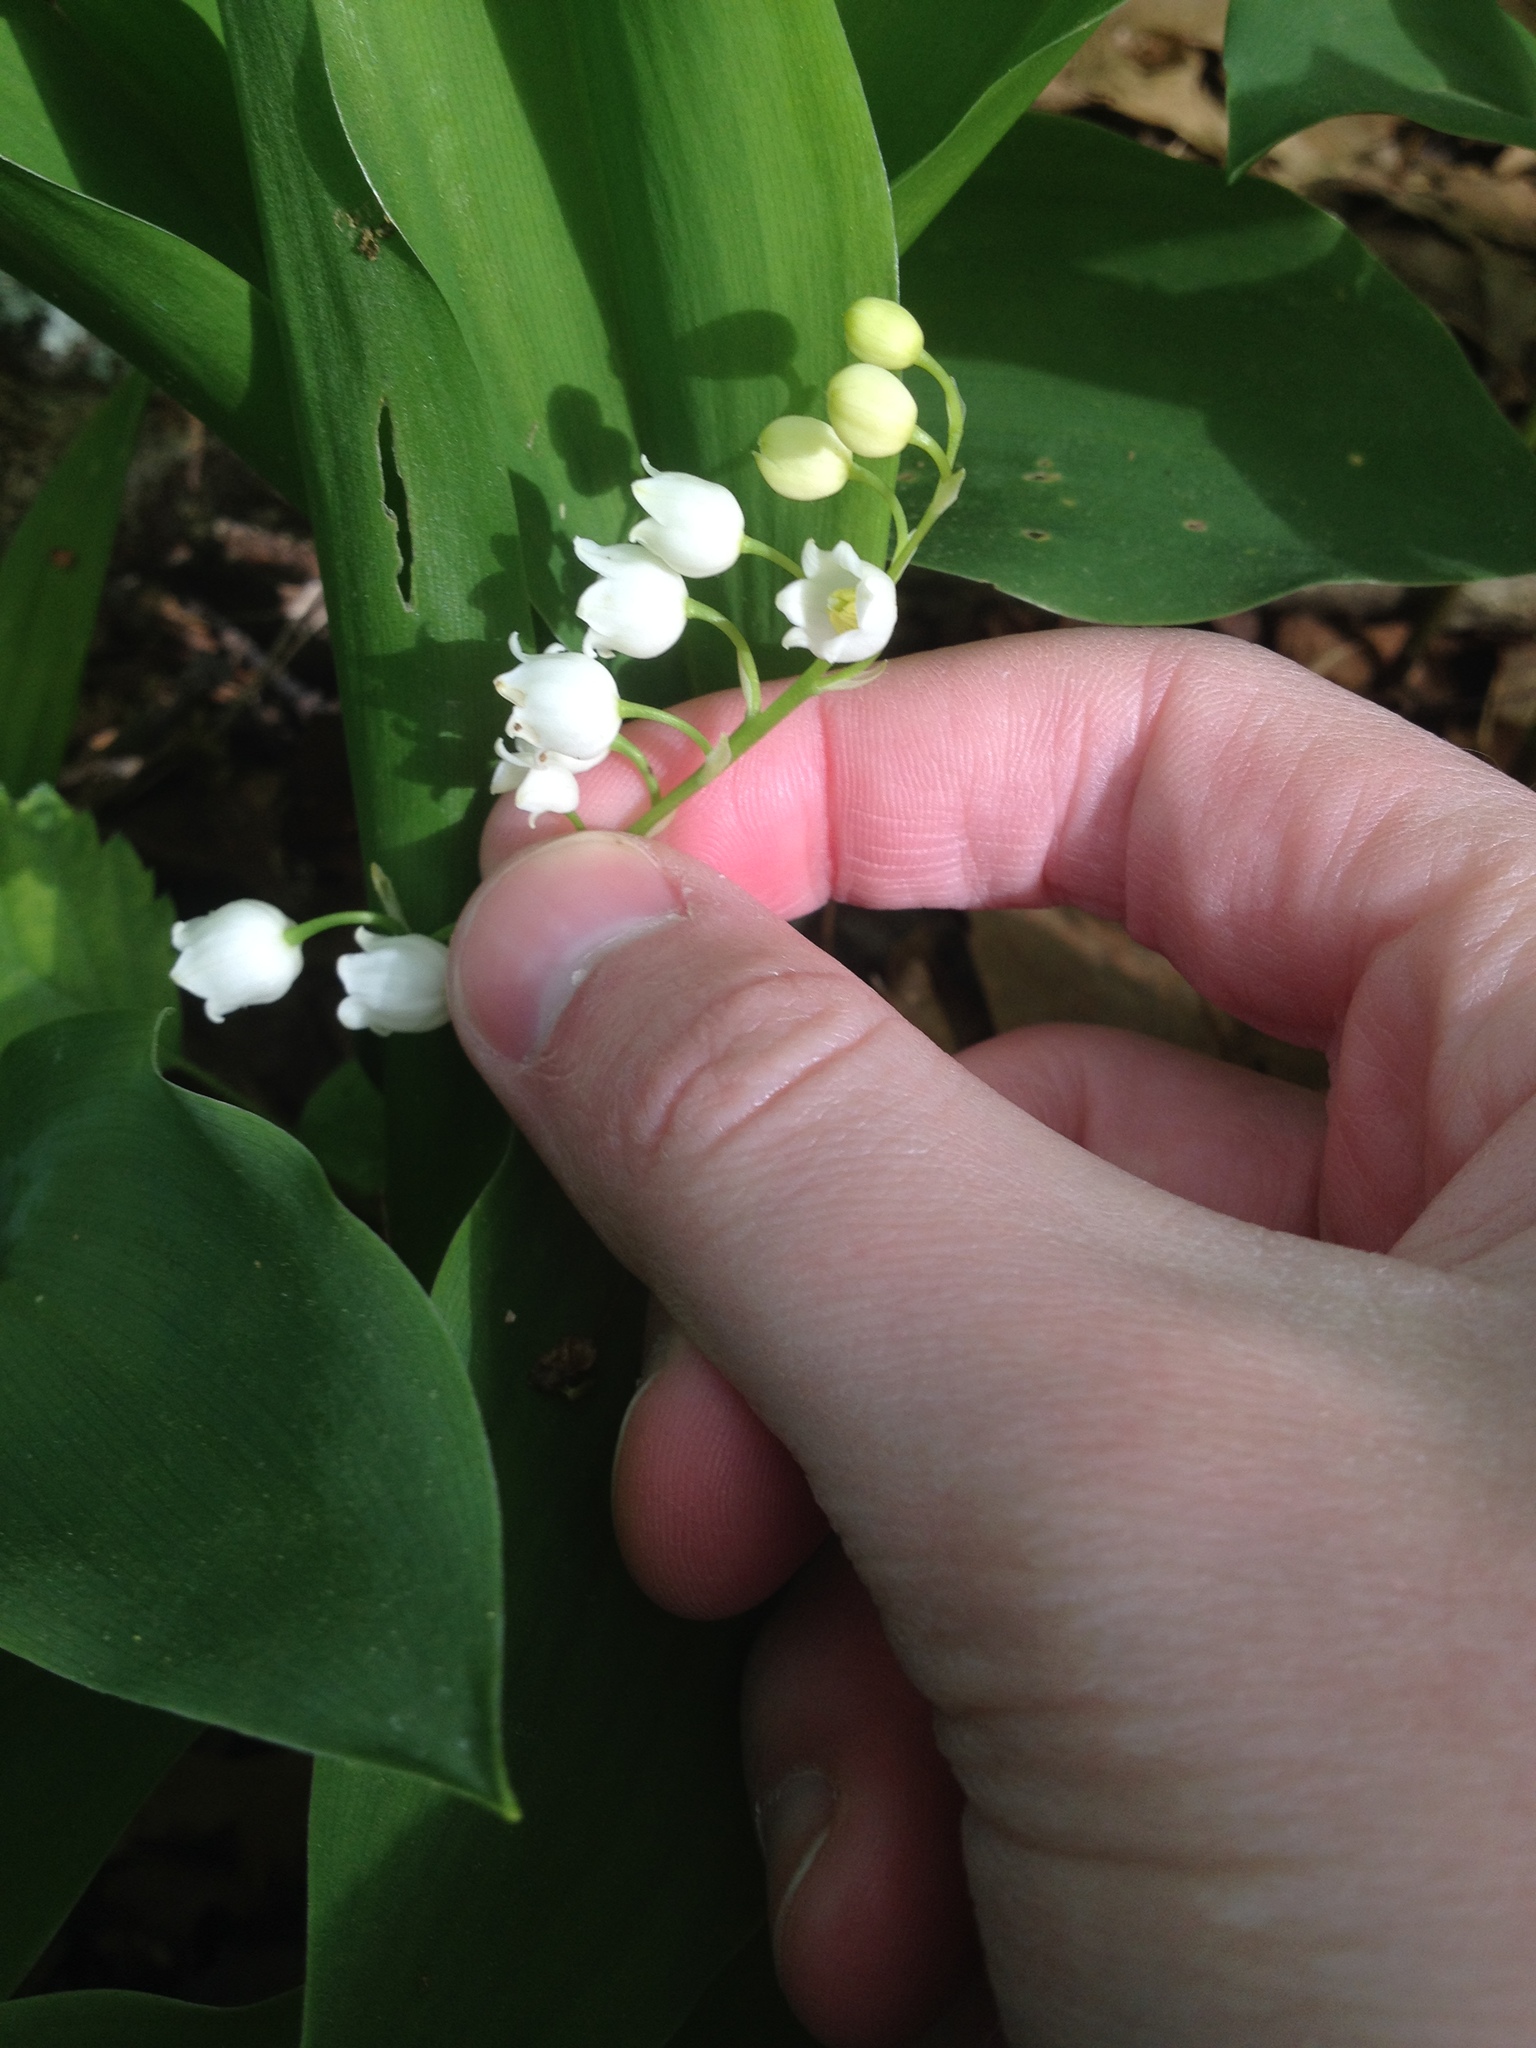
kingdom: Plantae
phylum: Tracheophyta
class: Liliopsida
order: Asparagales
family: Asparagaceae
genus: Convallaria
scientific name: Convallaria majalis
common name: Lily-of-the-valley
